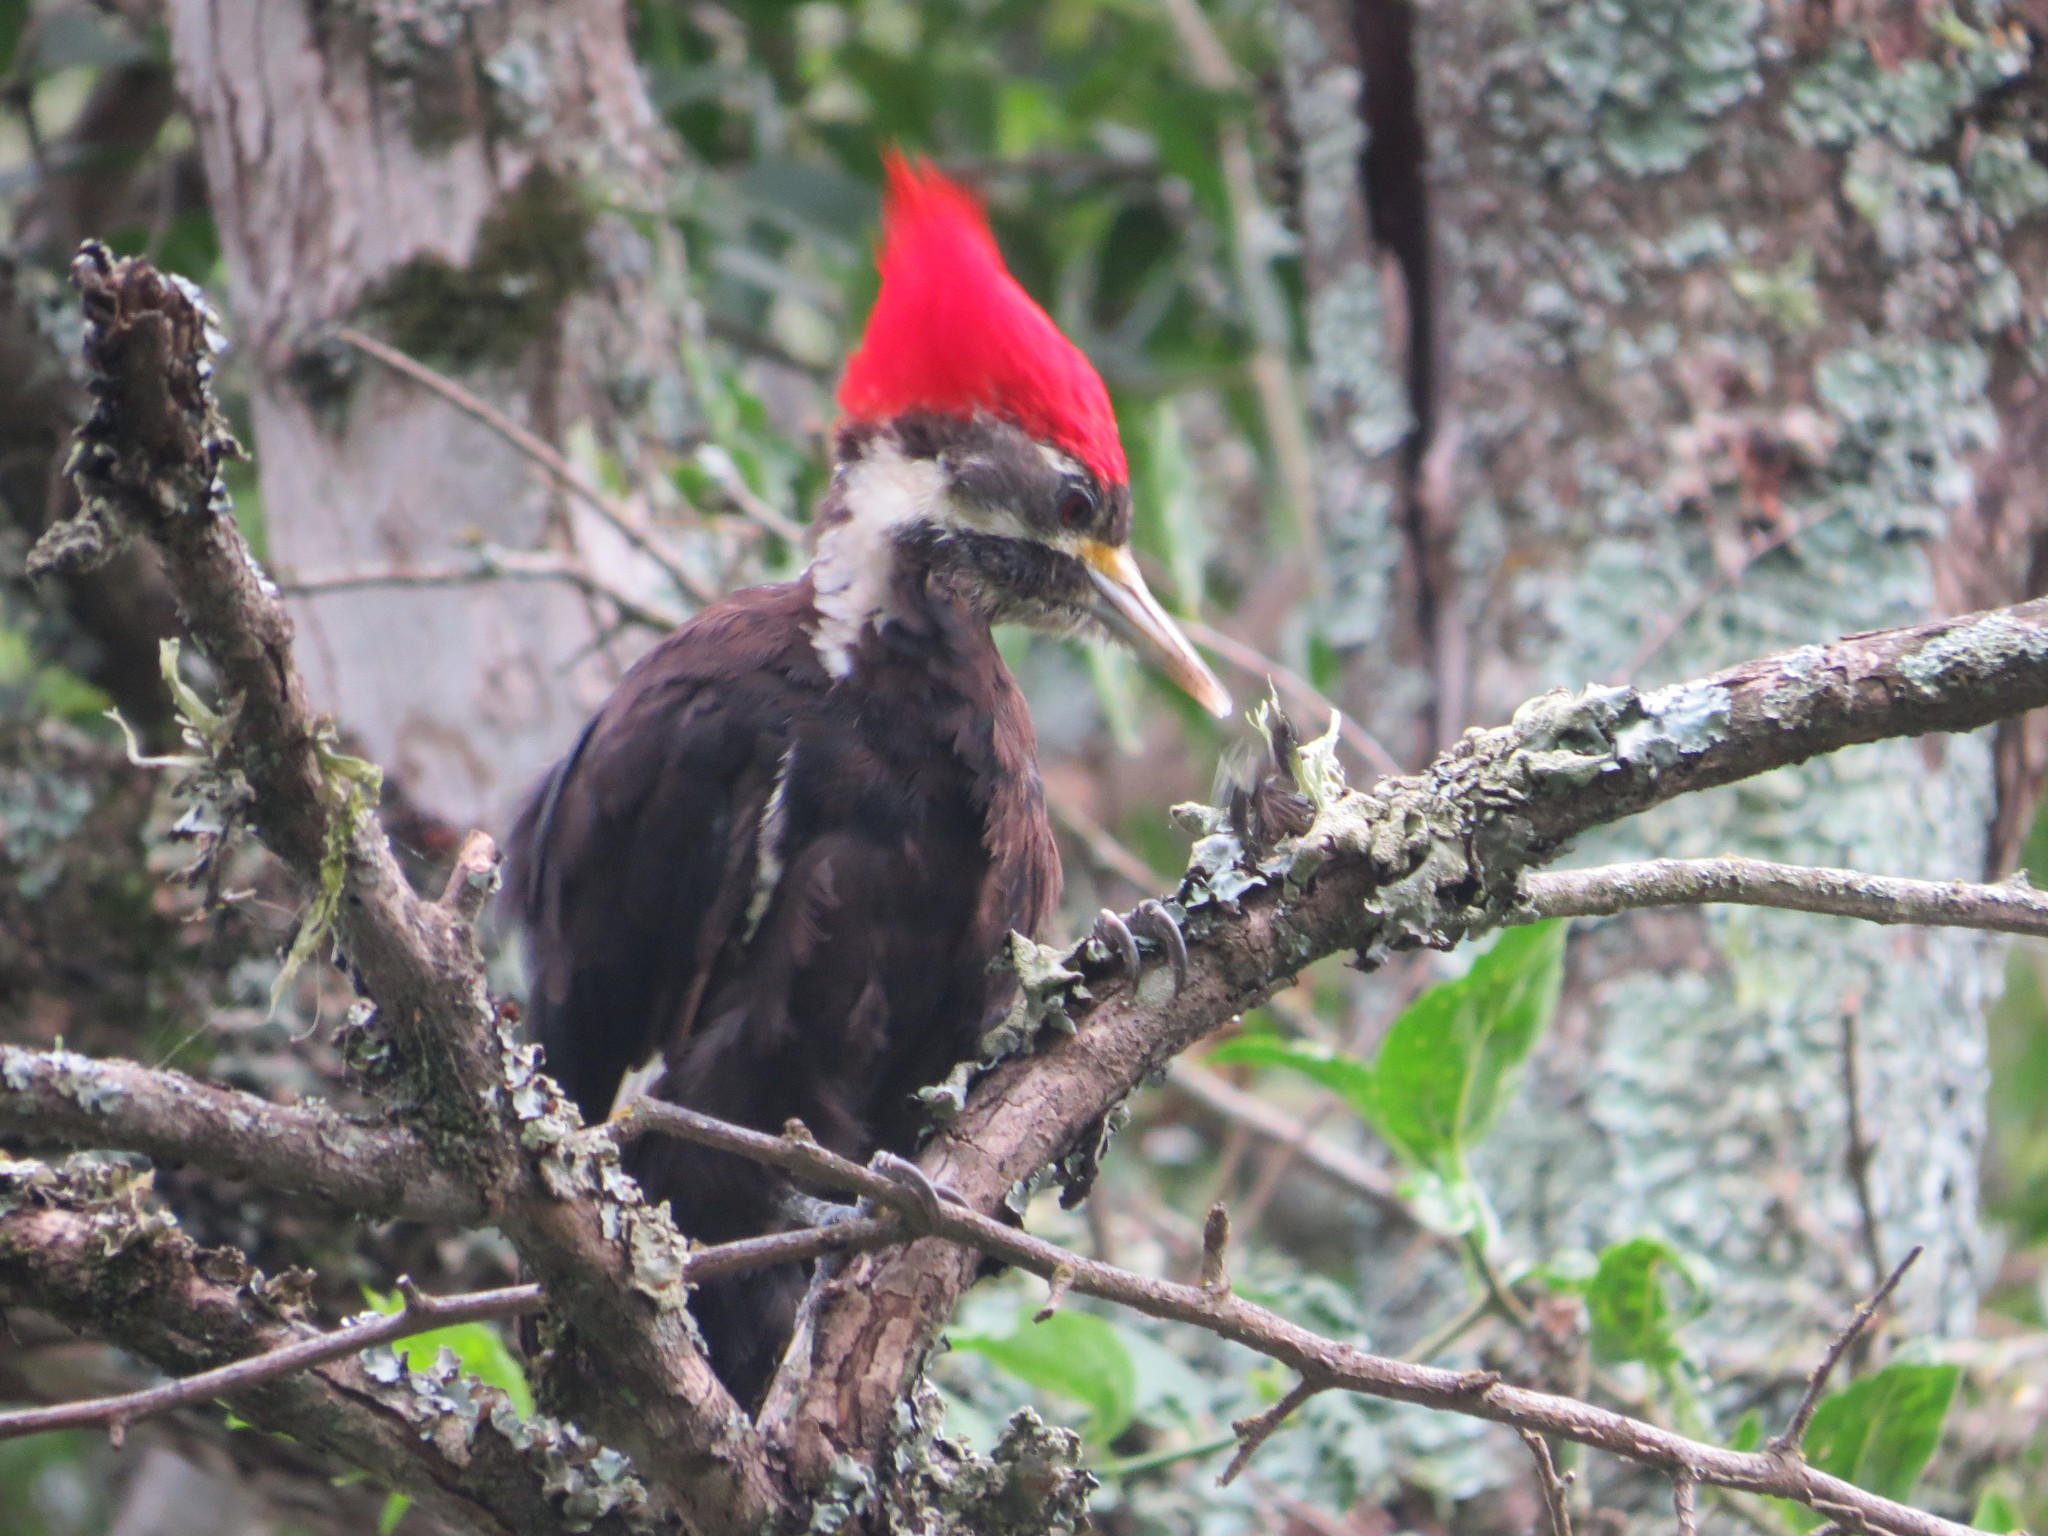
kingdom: Animalia
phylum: Chordata
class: Aves
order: Piciformes
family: Picidae
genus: Dryocopus
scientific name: Dryocopus schulzii
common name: Black-bodied woodpecker
